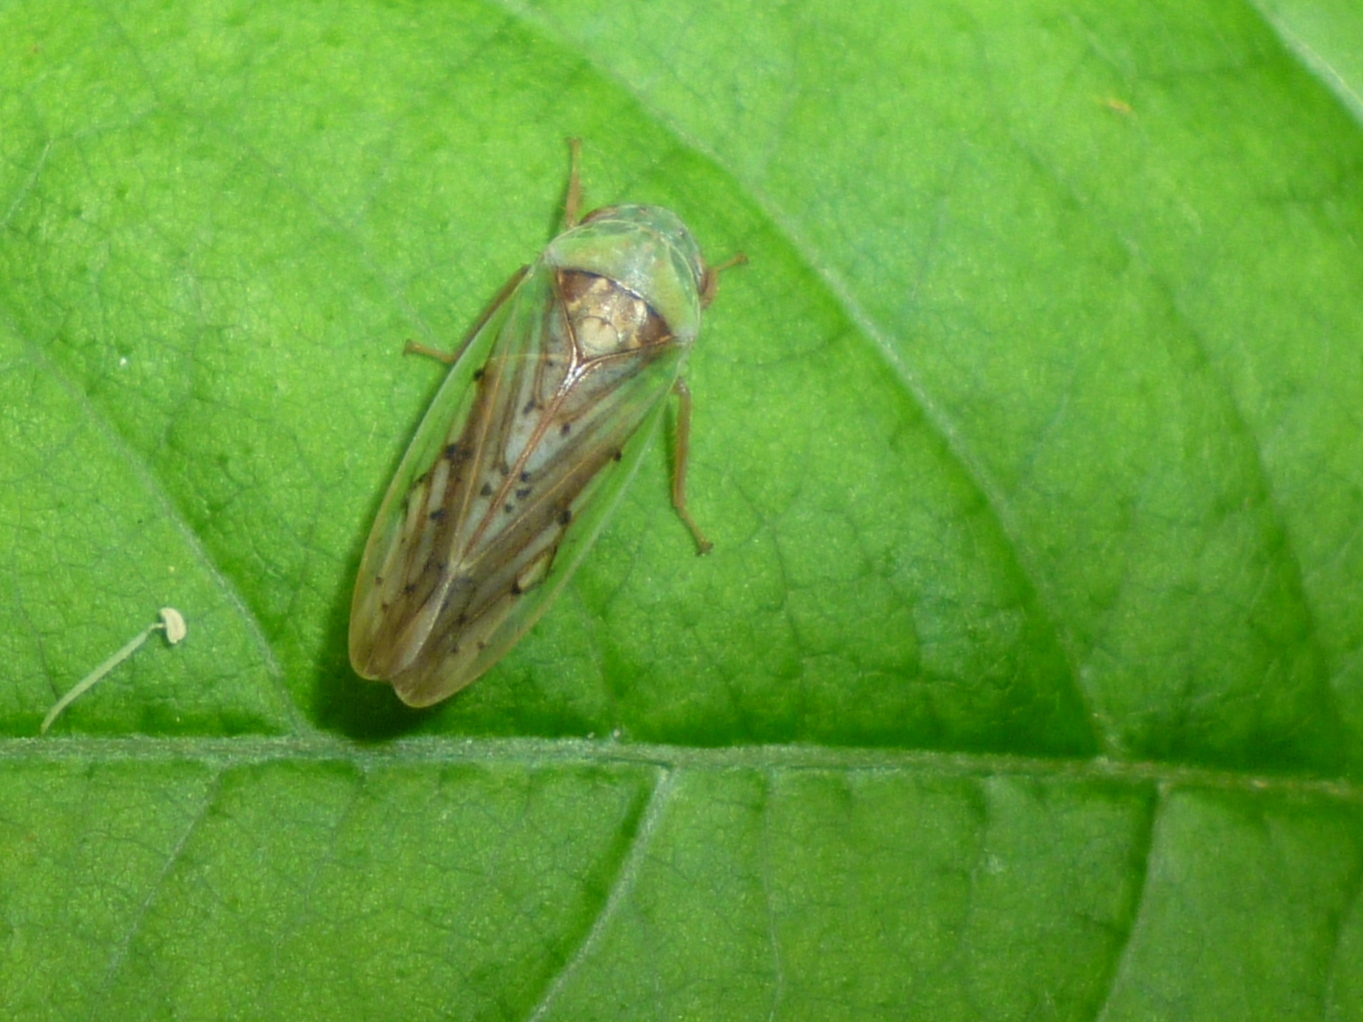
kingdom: Animalia
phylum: Arthropoda
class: Insecta
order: Hemiptera
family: Cicadellidae
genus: Ponana
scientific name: Ponana pectoralis
